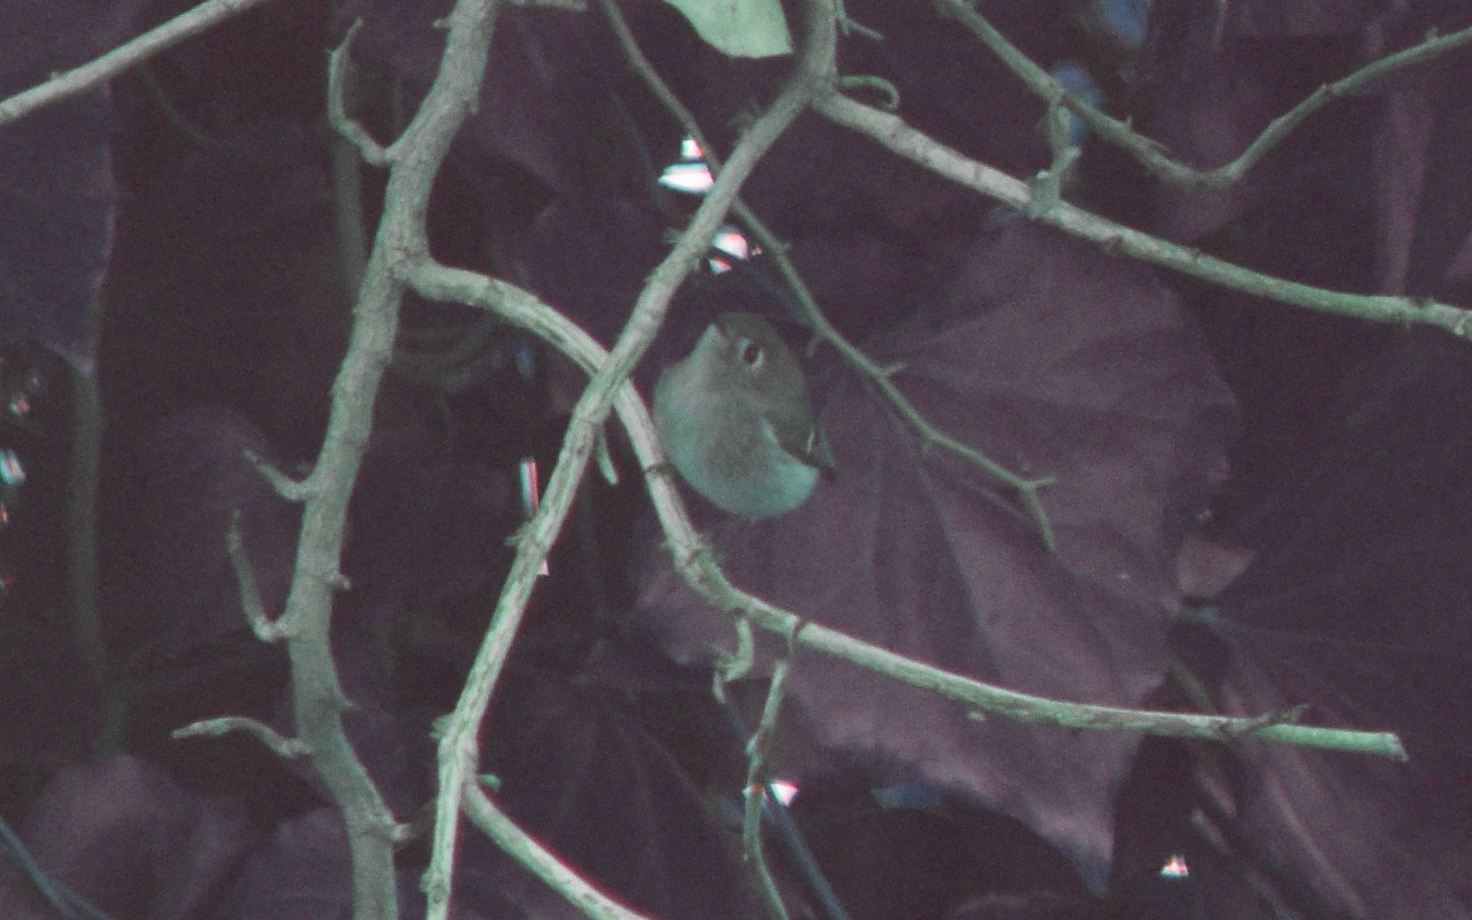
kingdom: Animalia
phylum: Chordata
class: Aves
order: Passeriformes
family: Regulidae
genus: Regulus
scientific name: Regulus calendula
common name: Ruby-crowned kinglet
